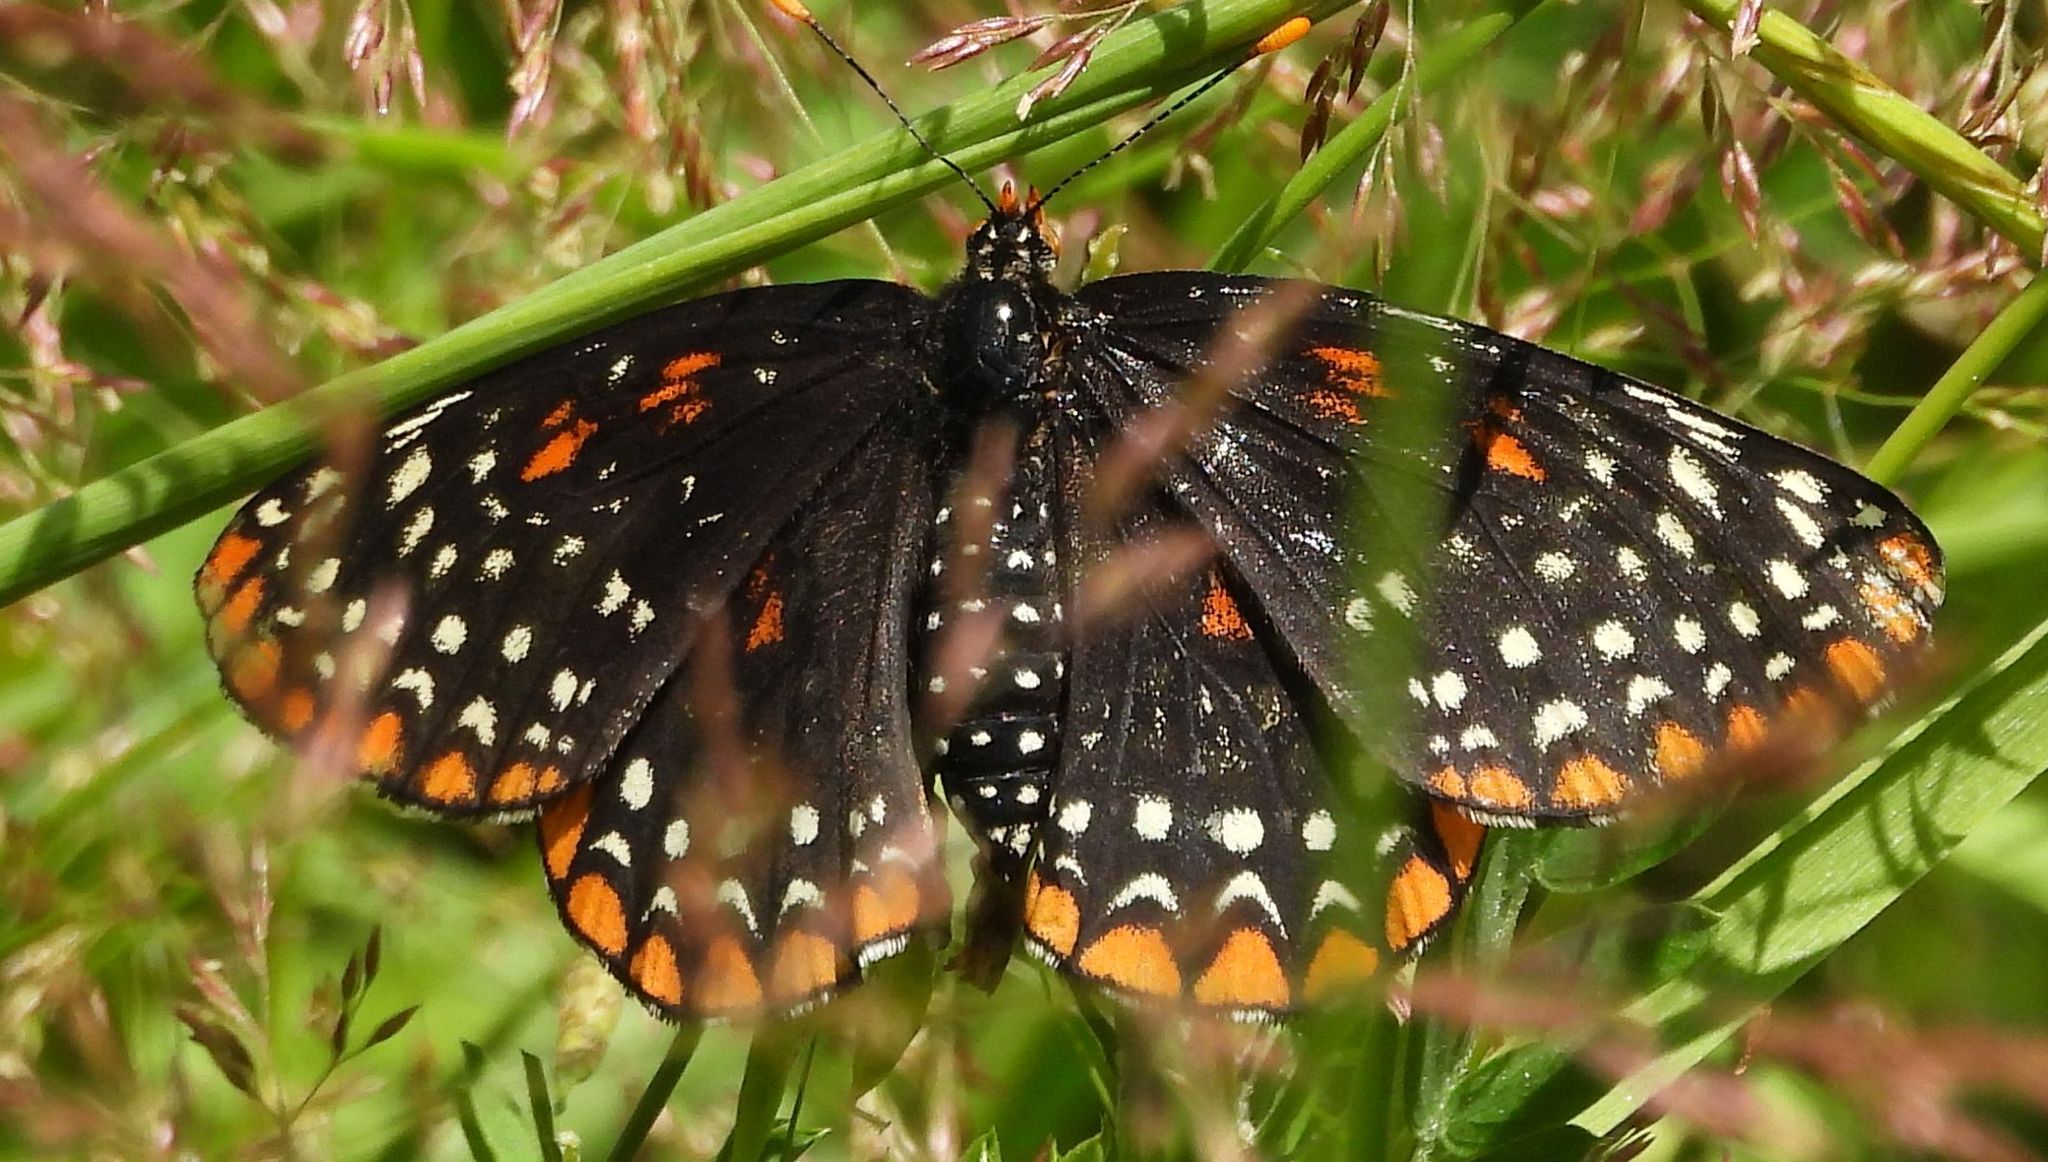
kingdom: Animalia
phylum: Arthropoda
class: Insecta
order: Lepidoptera
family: Nymphalidae
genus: Euphydryas
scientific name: Euphydryas phaeton
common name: Baltimore checkerspot
